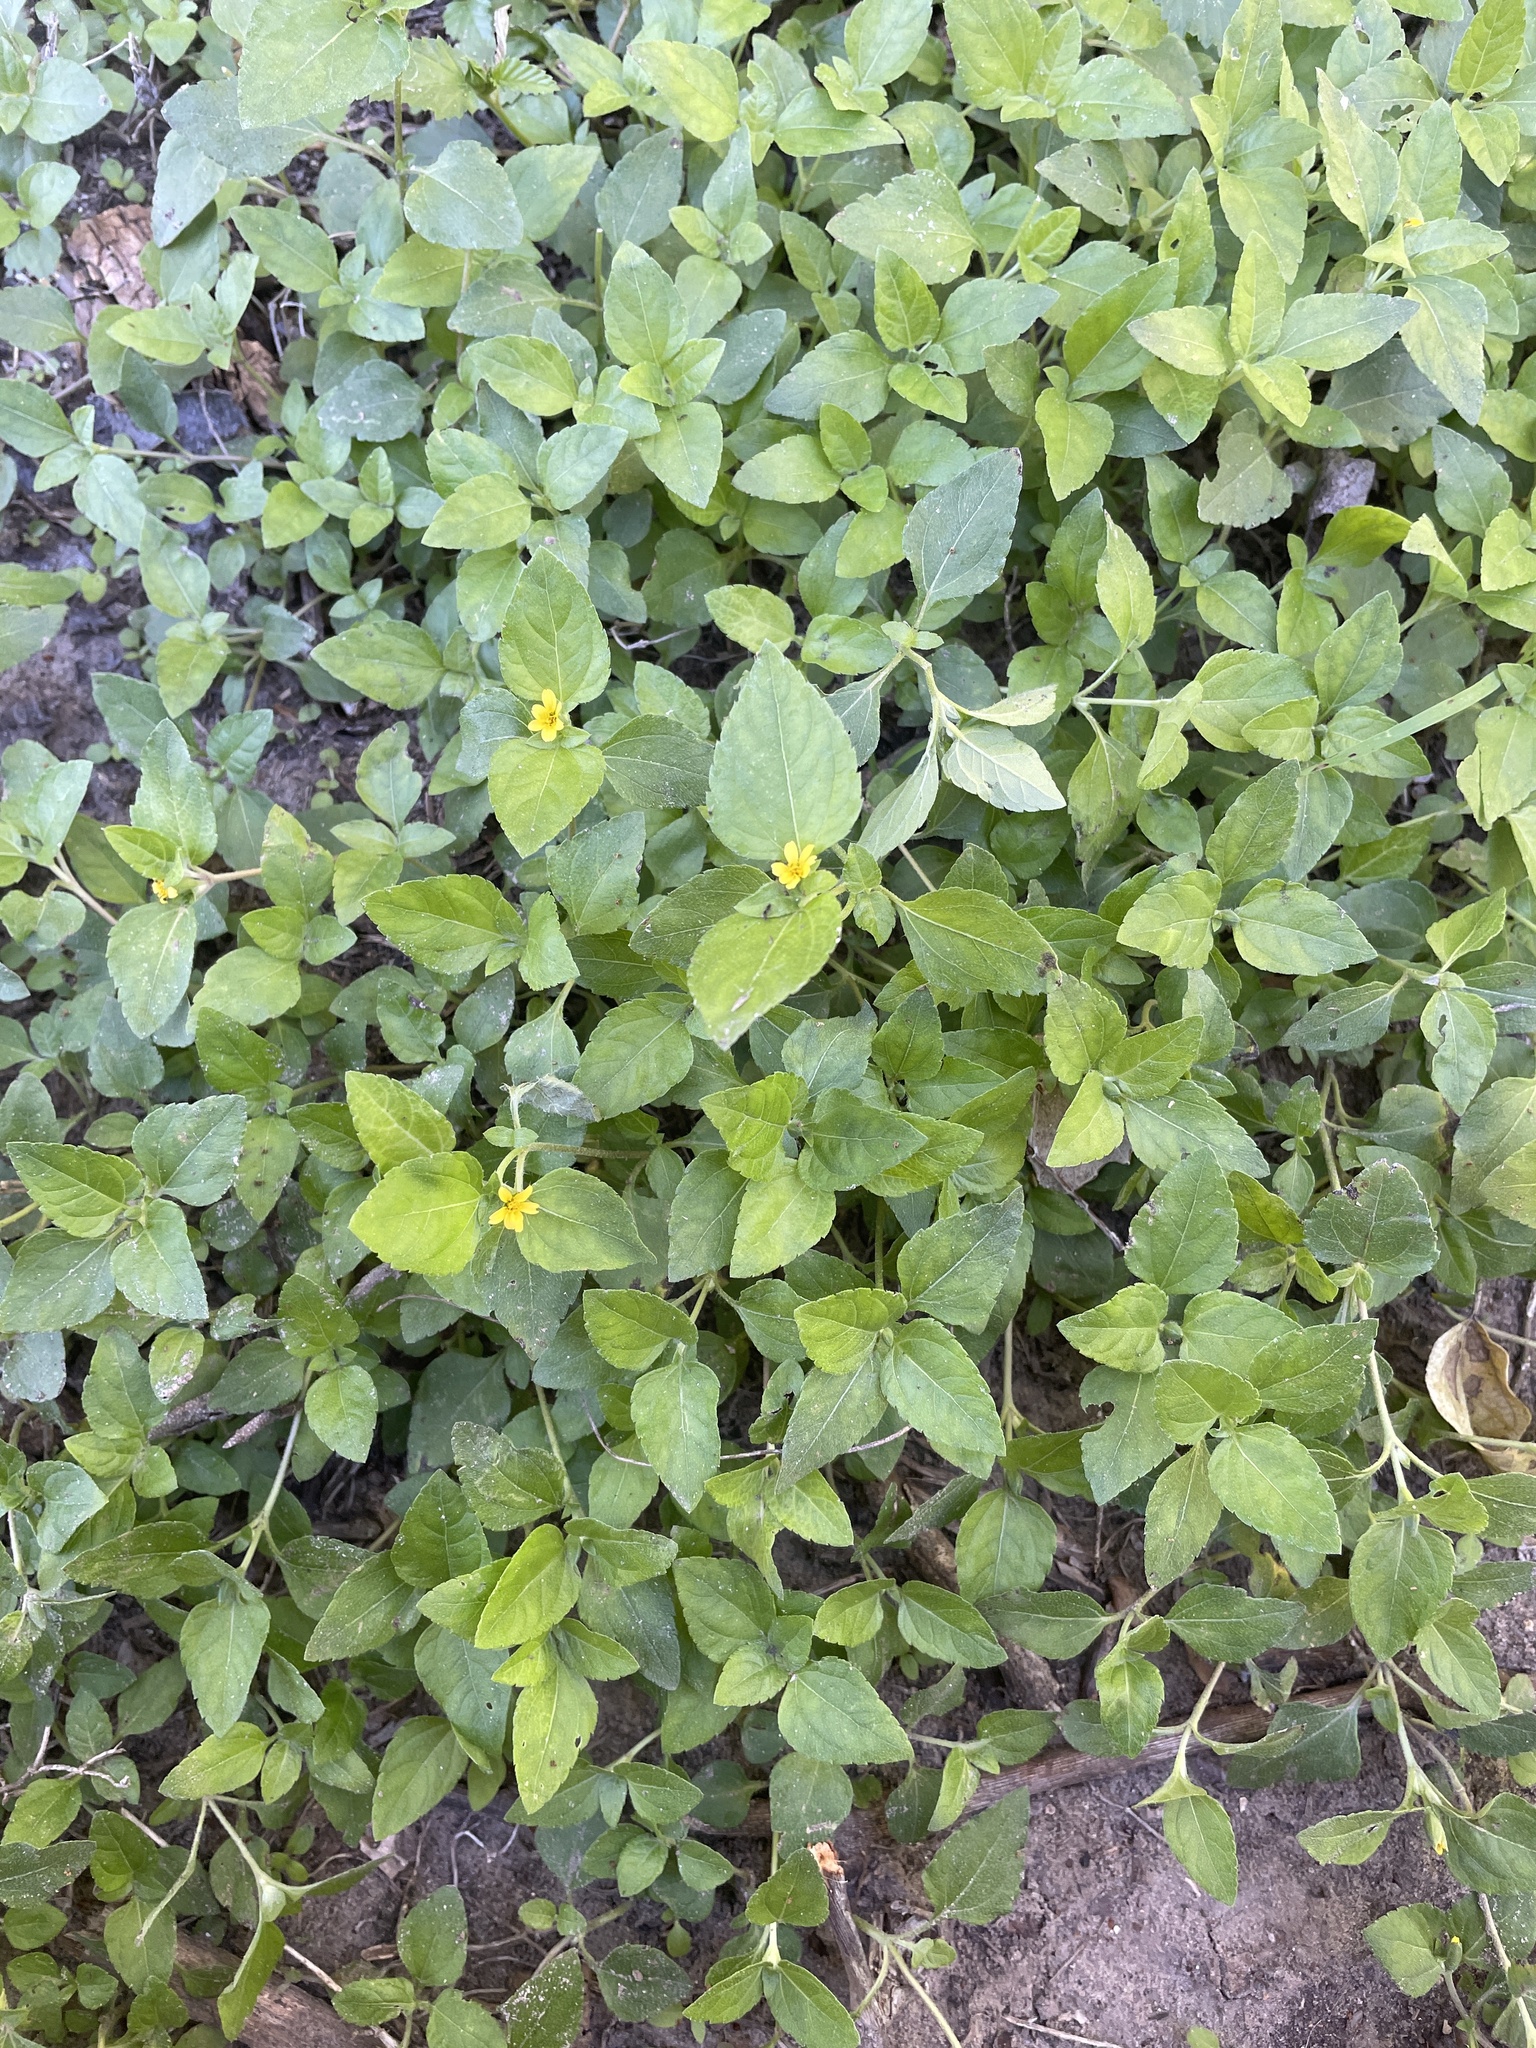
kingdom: Plantae
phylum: Tracheophyta
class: Magnoliopsida
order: Asterales
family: Asteraceae
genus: Calyptocarpus
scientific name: Calyptocarpus vialis
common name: Straggler daisy
